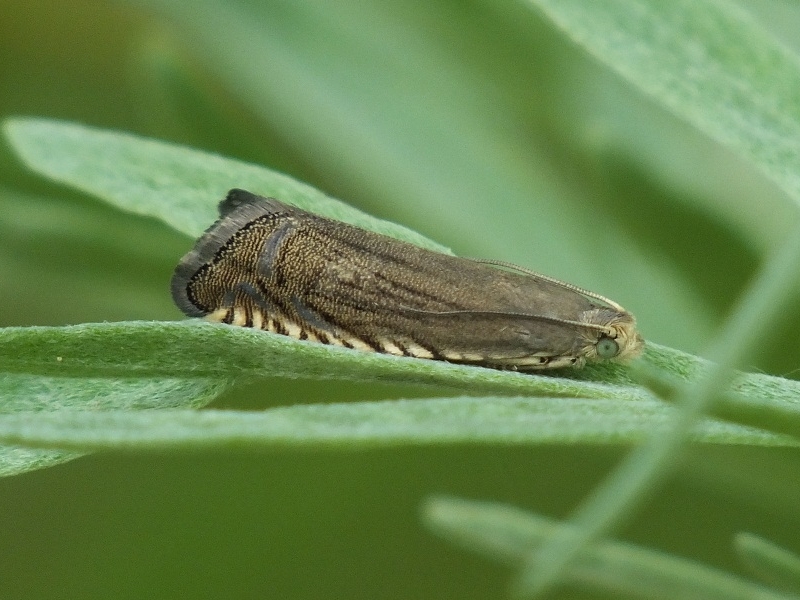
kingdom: Animalia
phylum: Arthropoda
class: Insecta
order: Lepidoptera
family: Tortricidae
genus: Grapholita
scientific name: Grapholita caecana
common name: Sainfoin piercer
